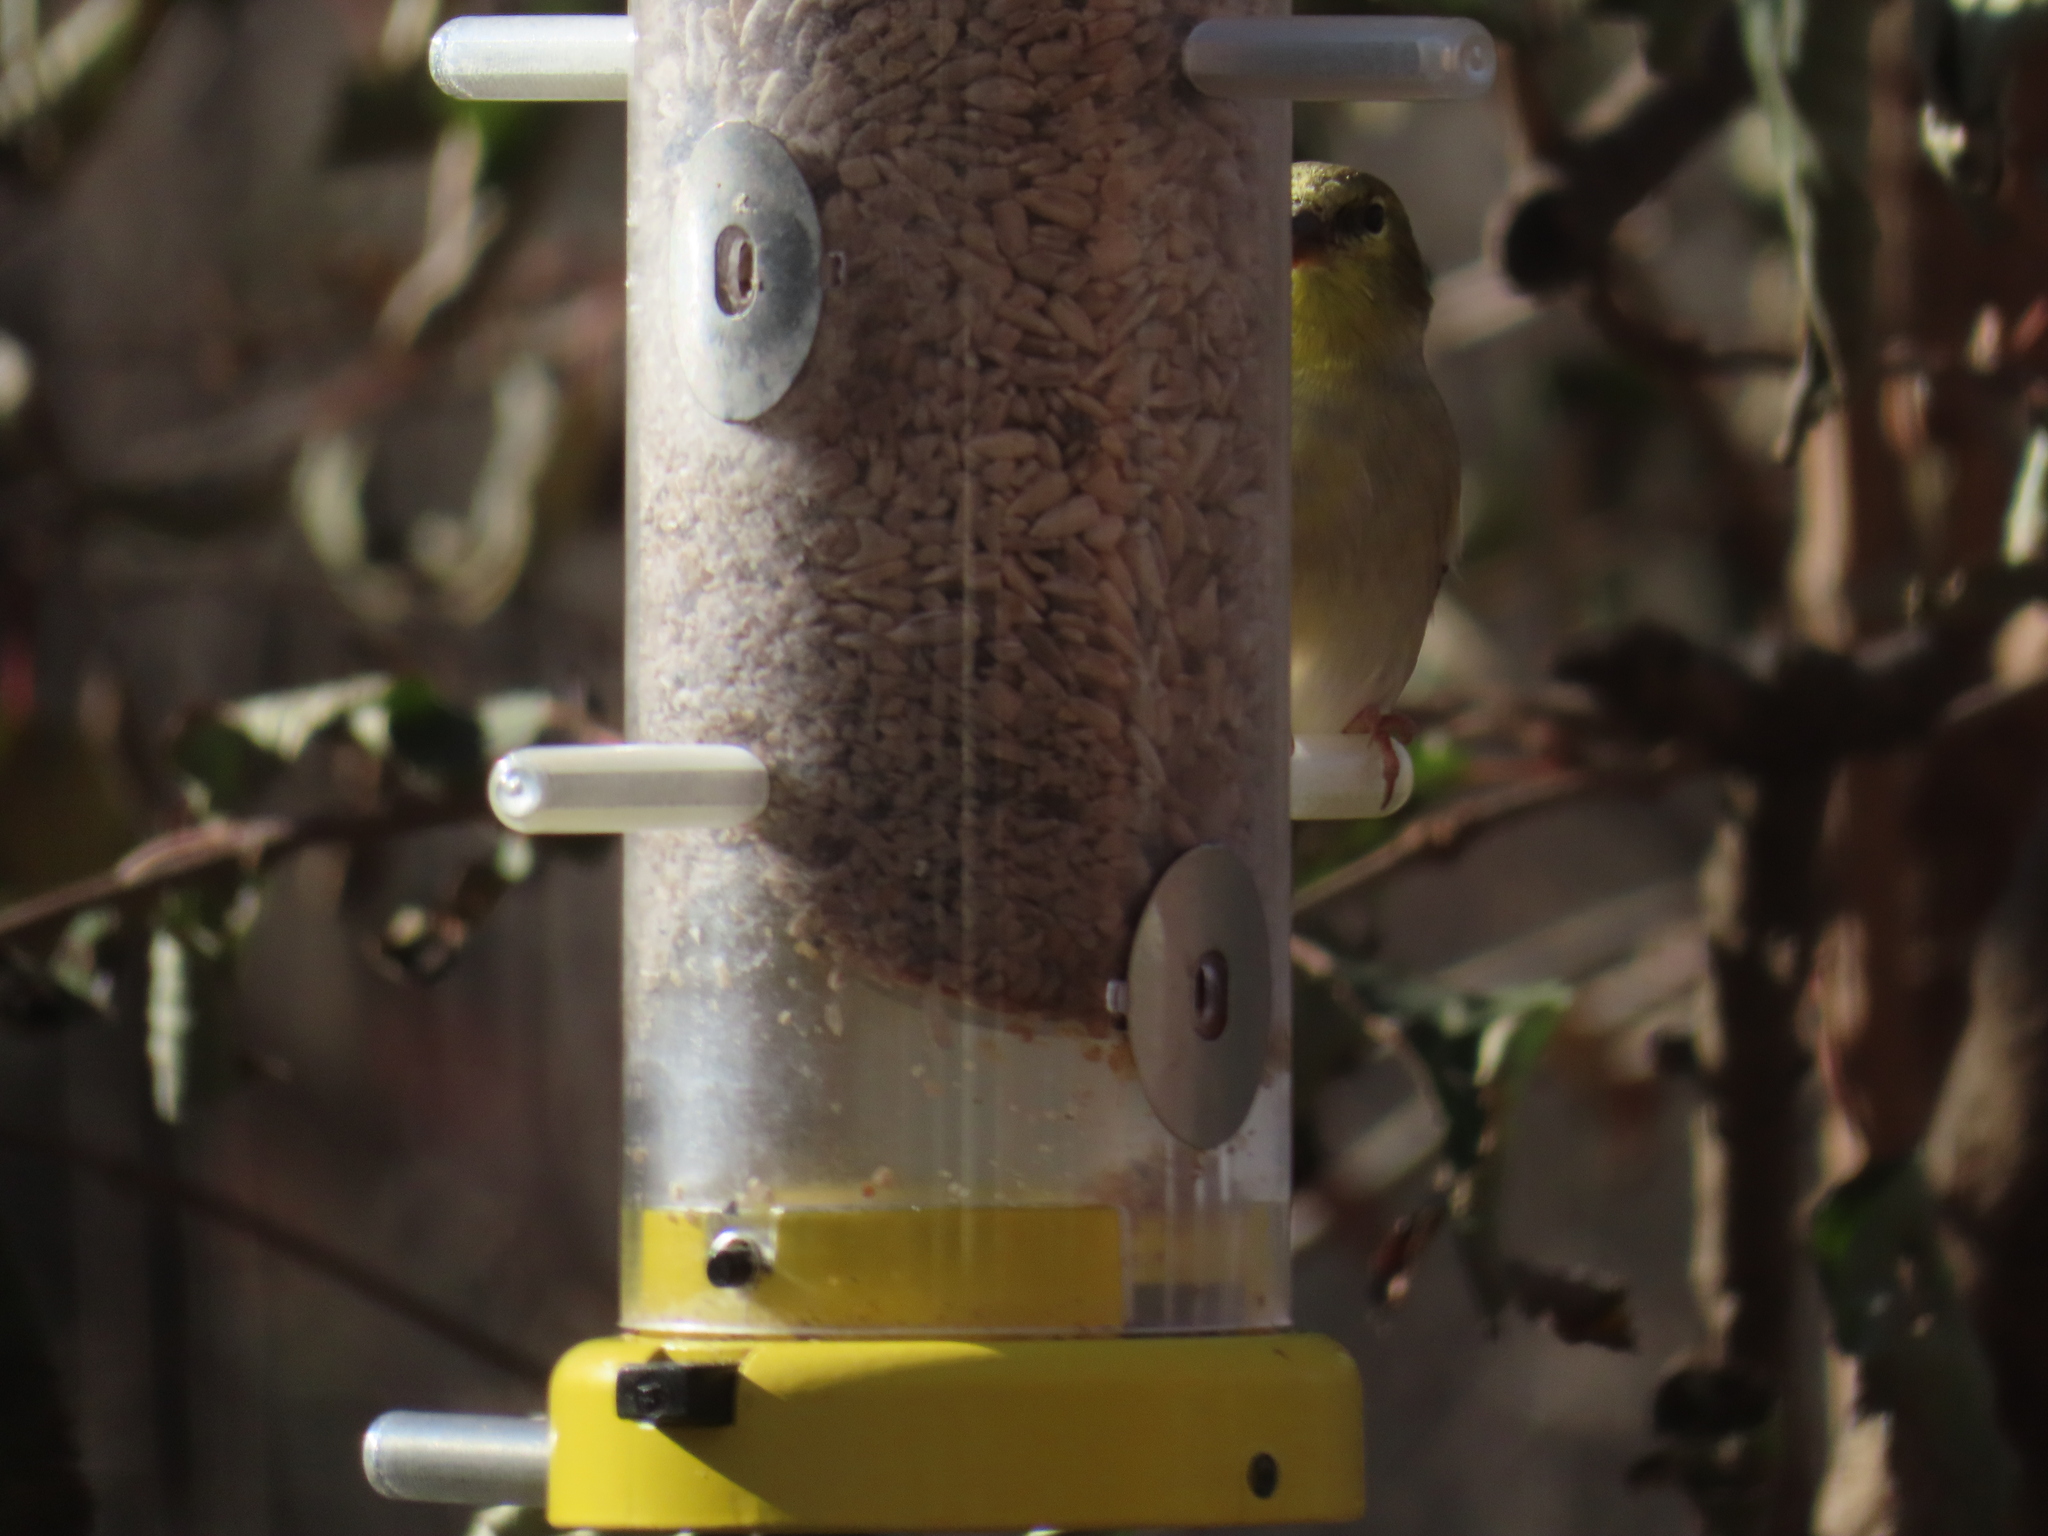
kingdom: Animalia
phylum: Chordata
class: Aves
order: Passeriformes
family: Fringillidae
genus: Spinus
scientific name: Spinus tristis
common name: American goldfinch
